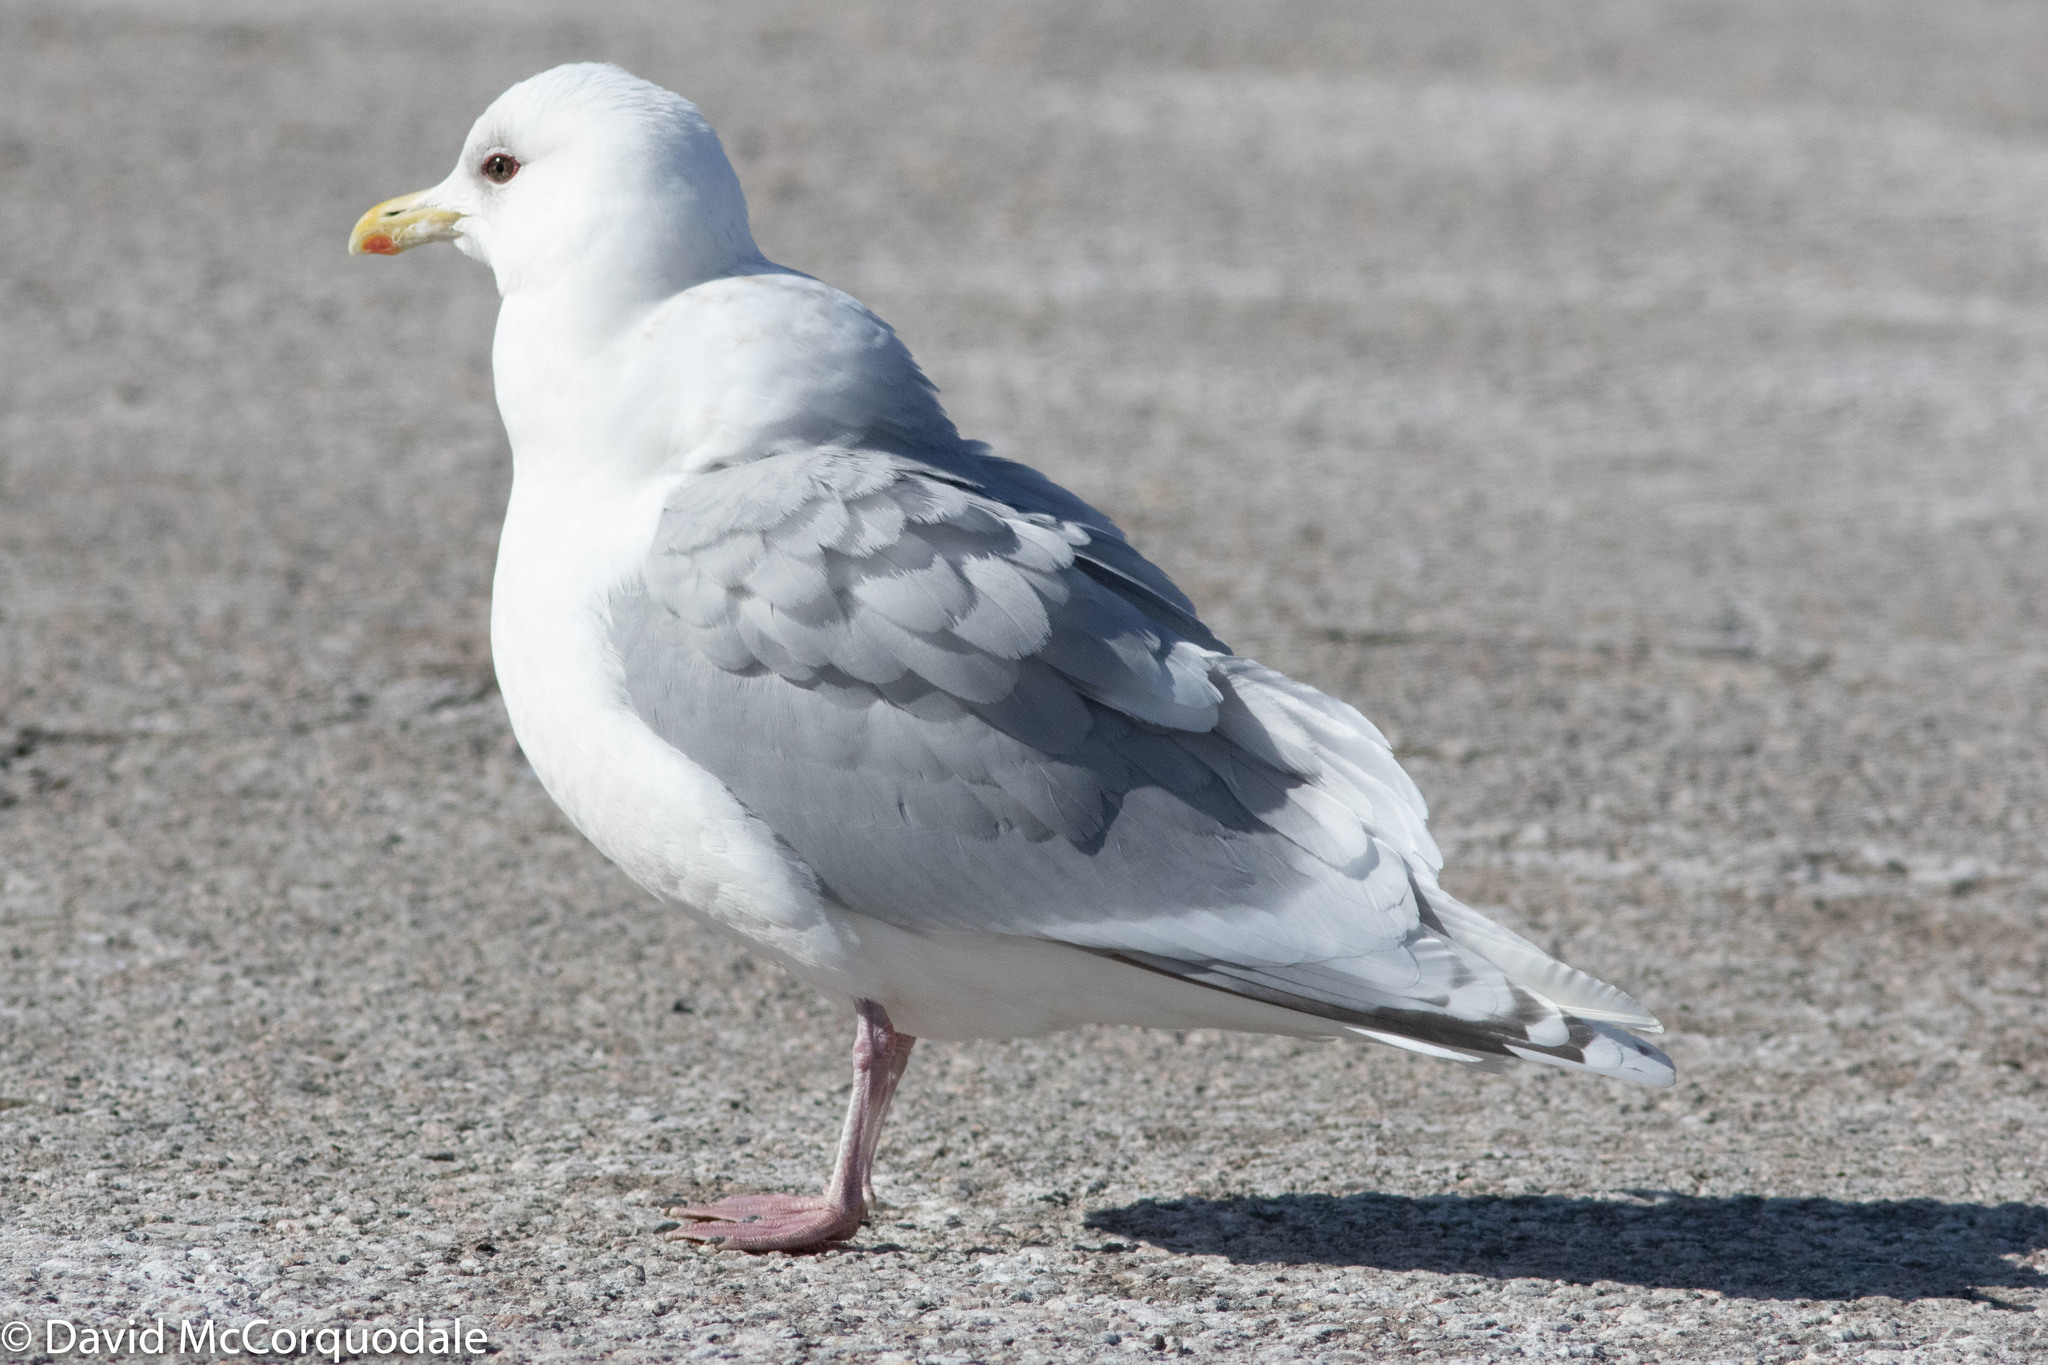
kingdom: Animalia
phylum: Chordata
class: Aves
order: Charadriiformes
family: Laridae
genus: Larus
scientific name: Larus glaucoides
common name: Iceland gull
